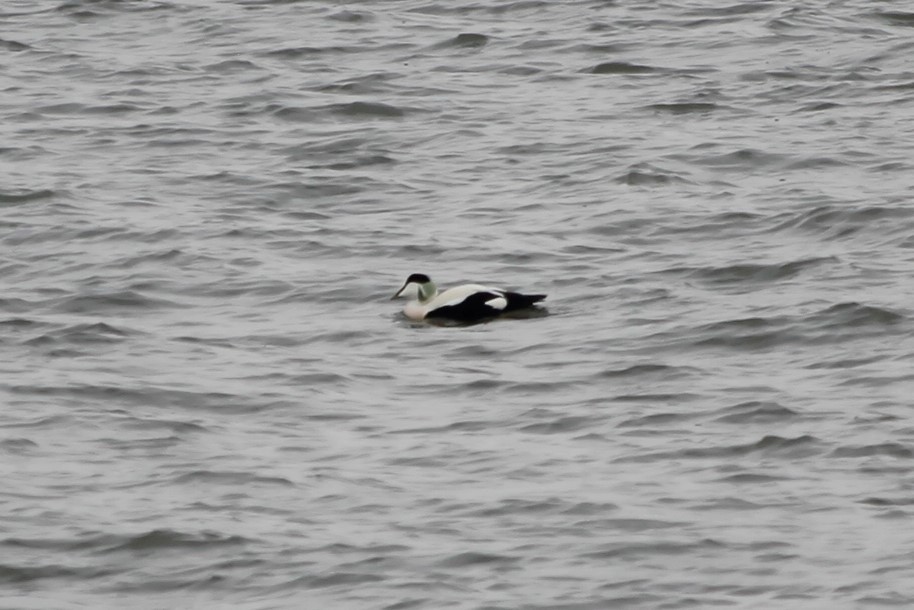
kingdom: Animalia
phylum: Chordata
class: Aves
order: Anseriformes
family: Anatidae
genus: Somateria
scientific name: Somateria mollissima
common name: Common eider
